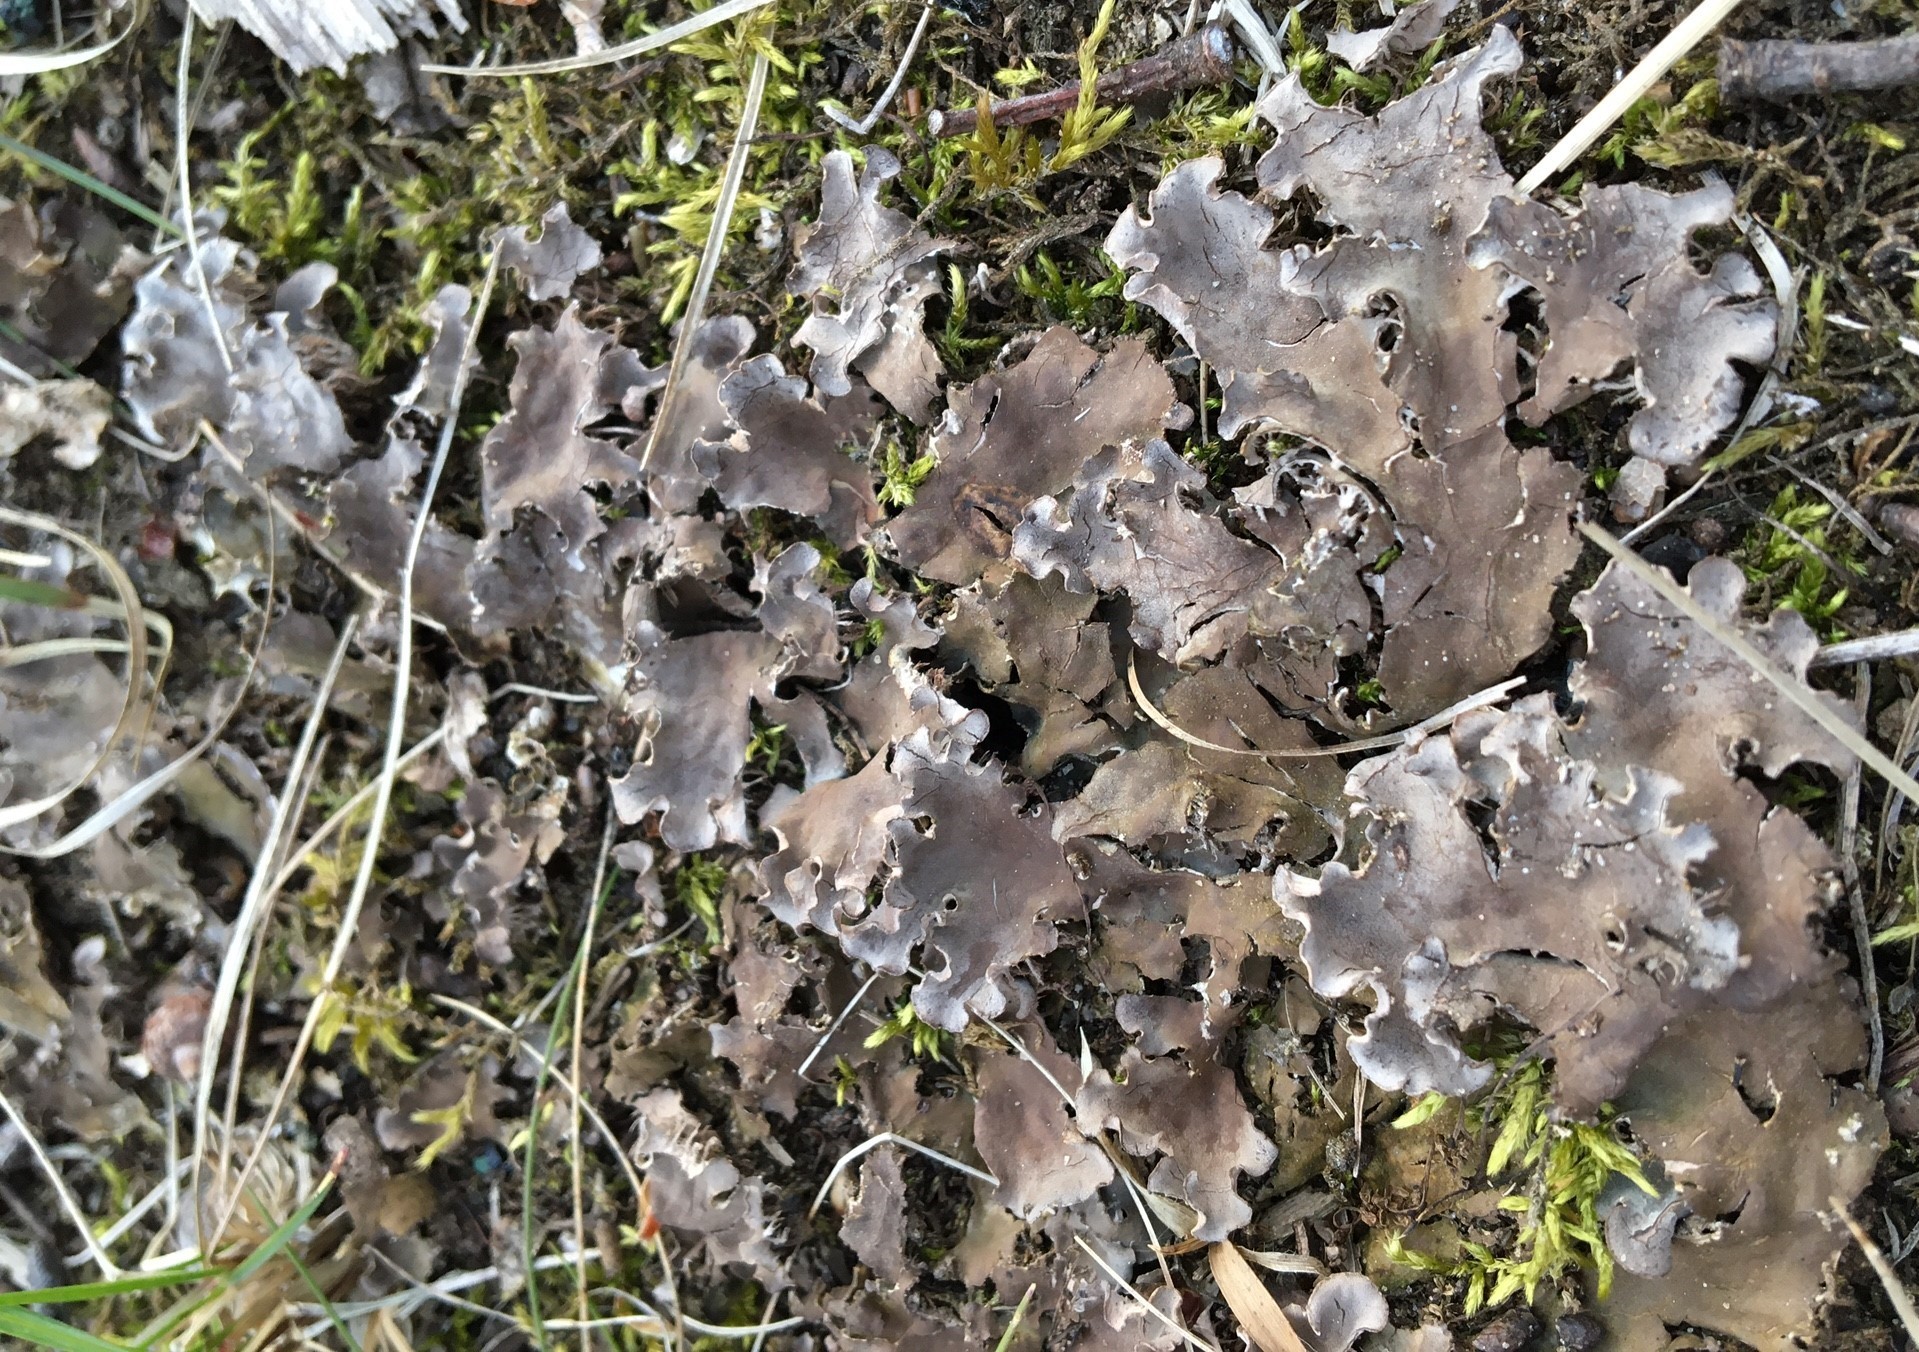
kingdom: Fungi
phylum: Ascomycota
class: Lecanoromycetes
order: Peltigerales
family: Peltigeraceae
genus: Peltigera
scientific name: Peltigera canina
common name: Dog pelt lichen
